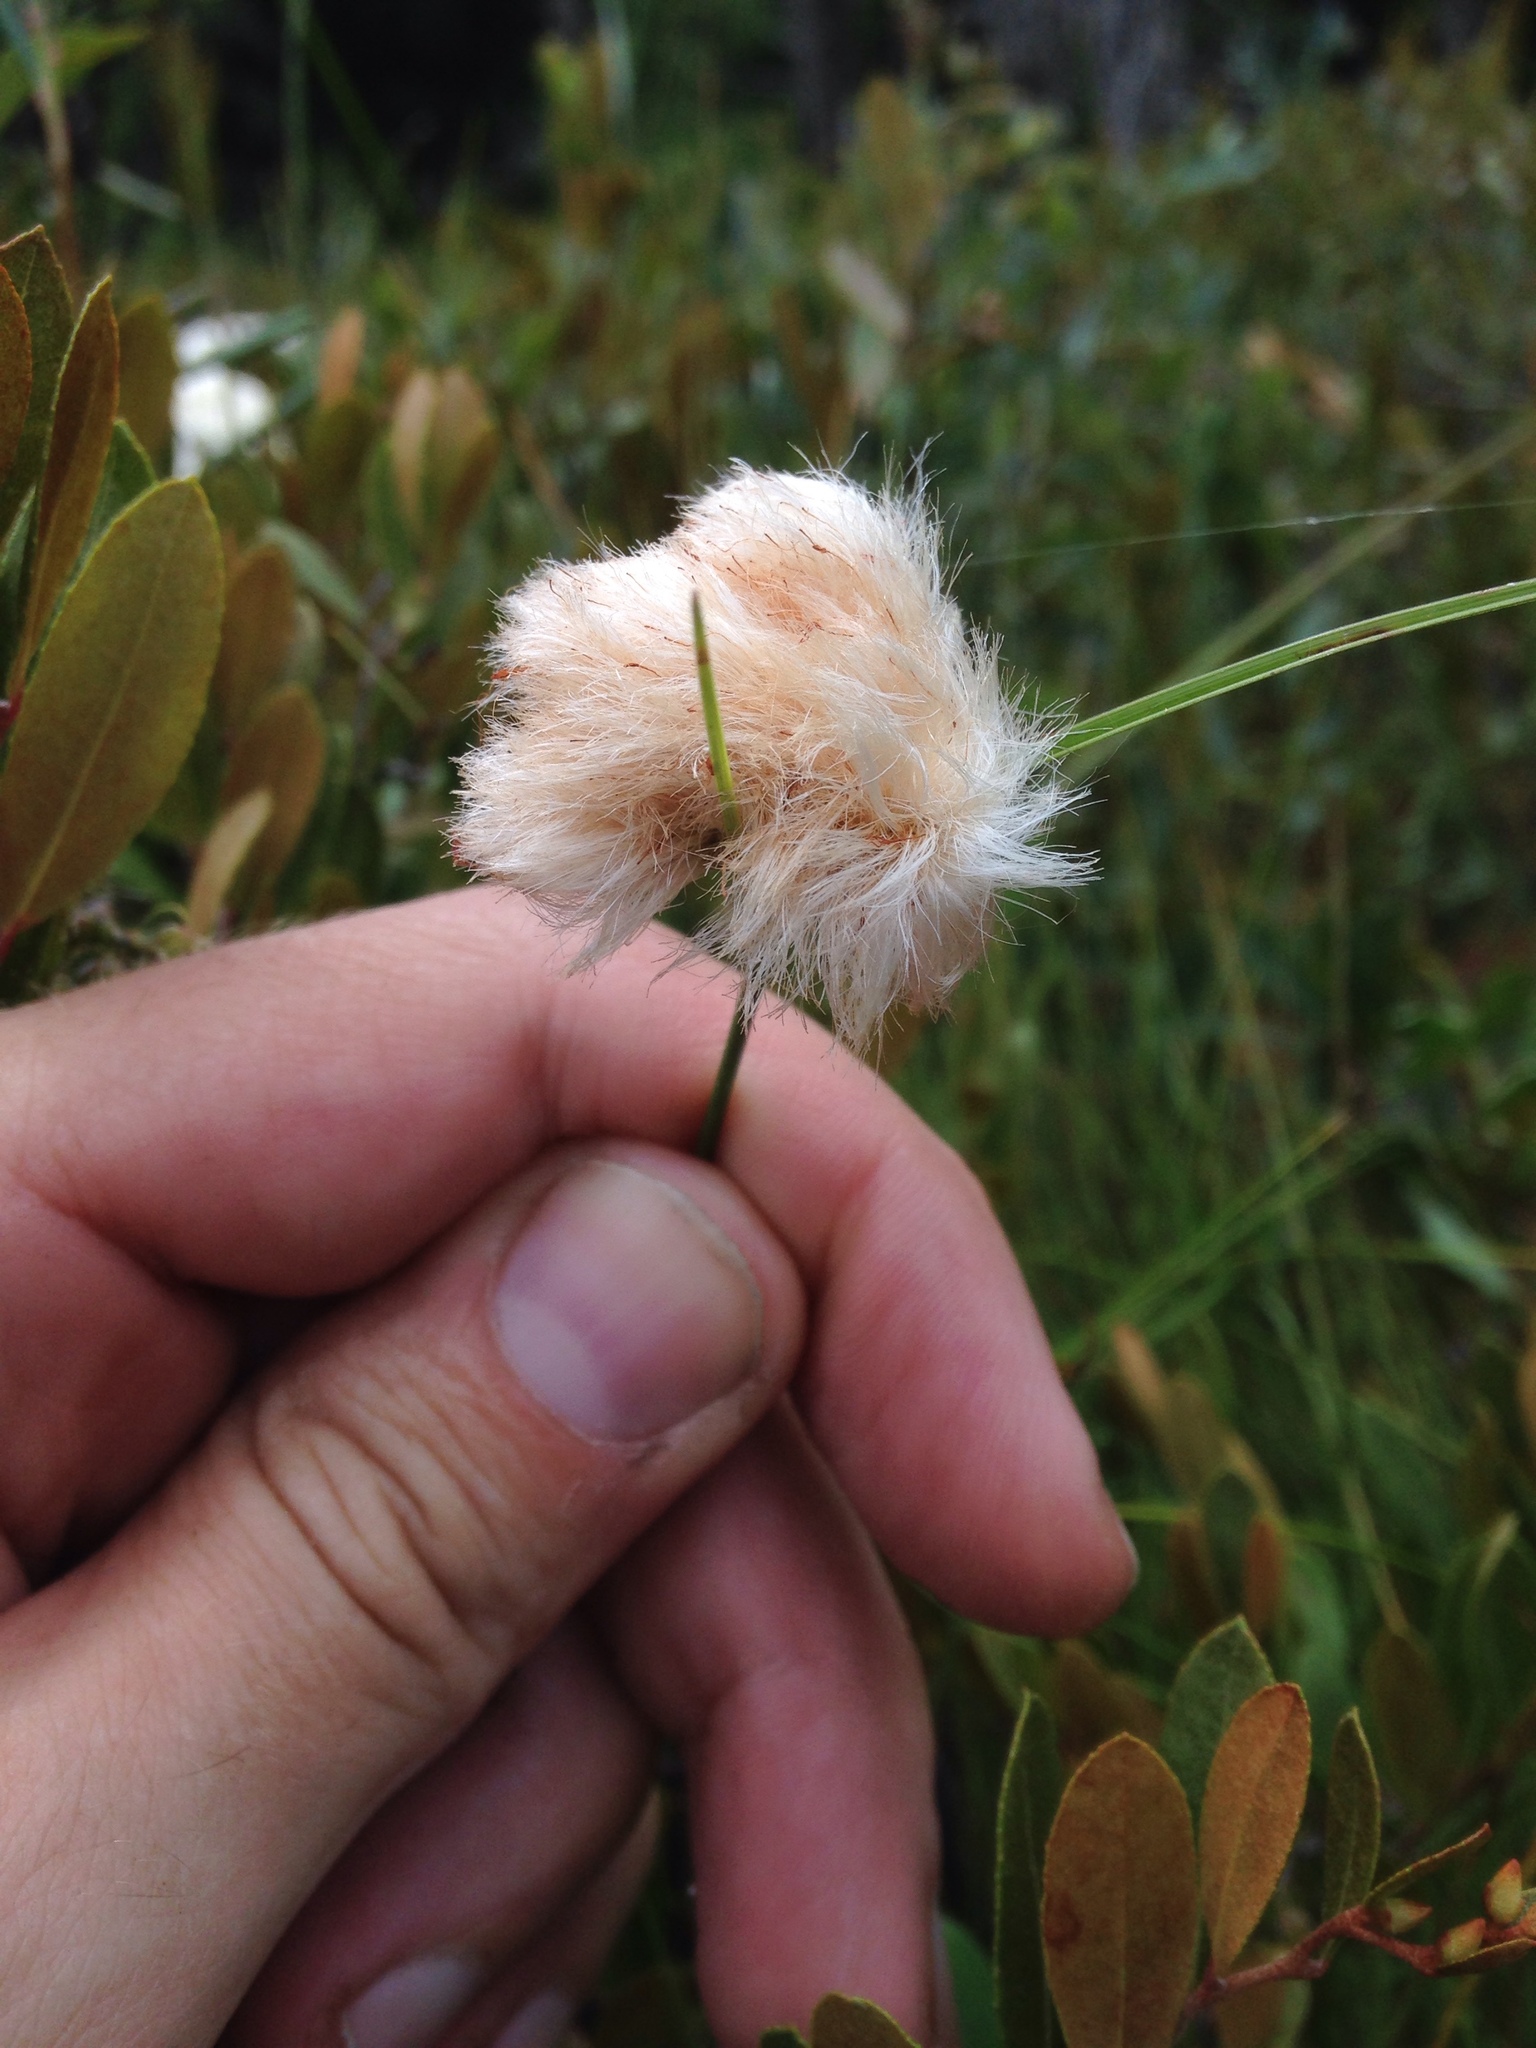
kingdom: Plantae
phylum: Tracheophyta
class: Liliopsida
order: Poales
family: Cyperaceae
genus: Eriophorum
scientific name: Eriophorum virginicum
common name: Tawny cottongrass
